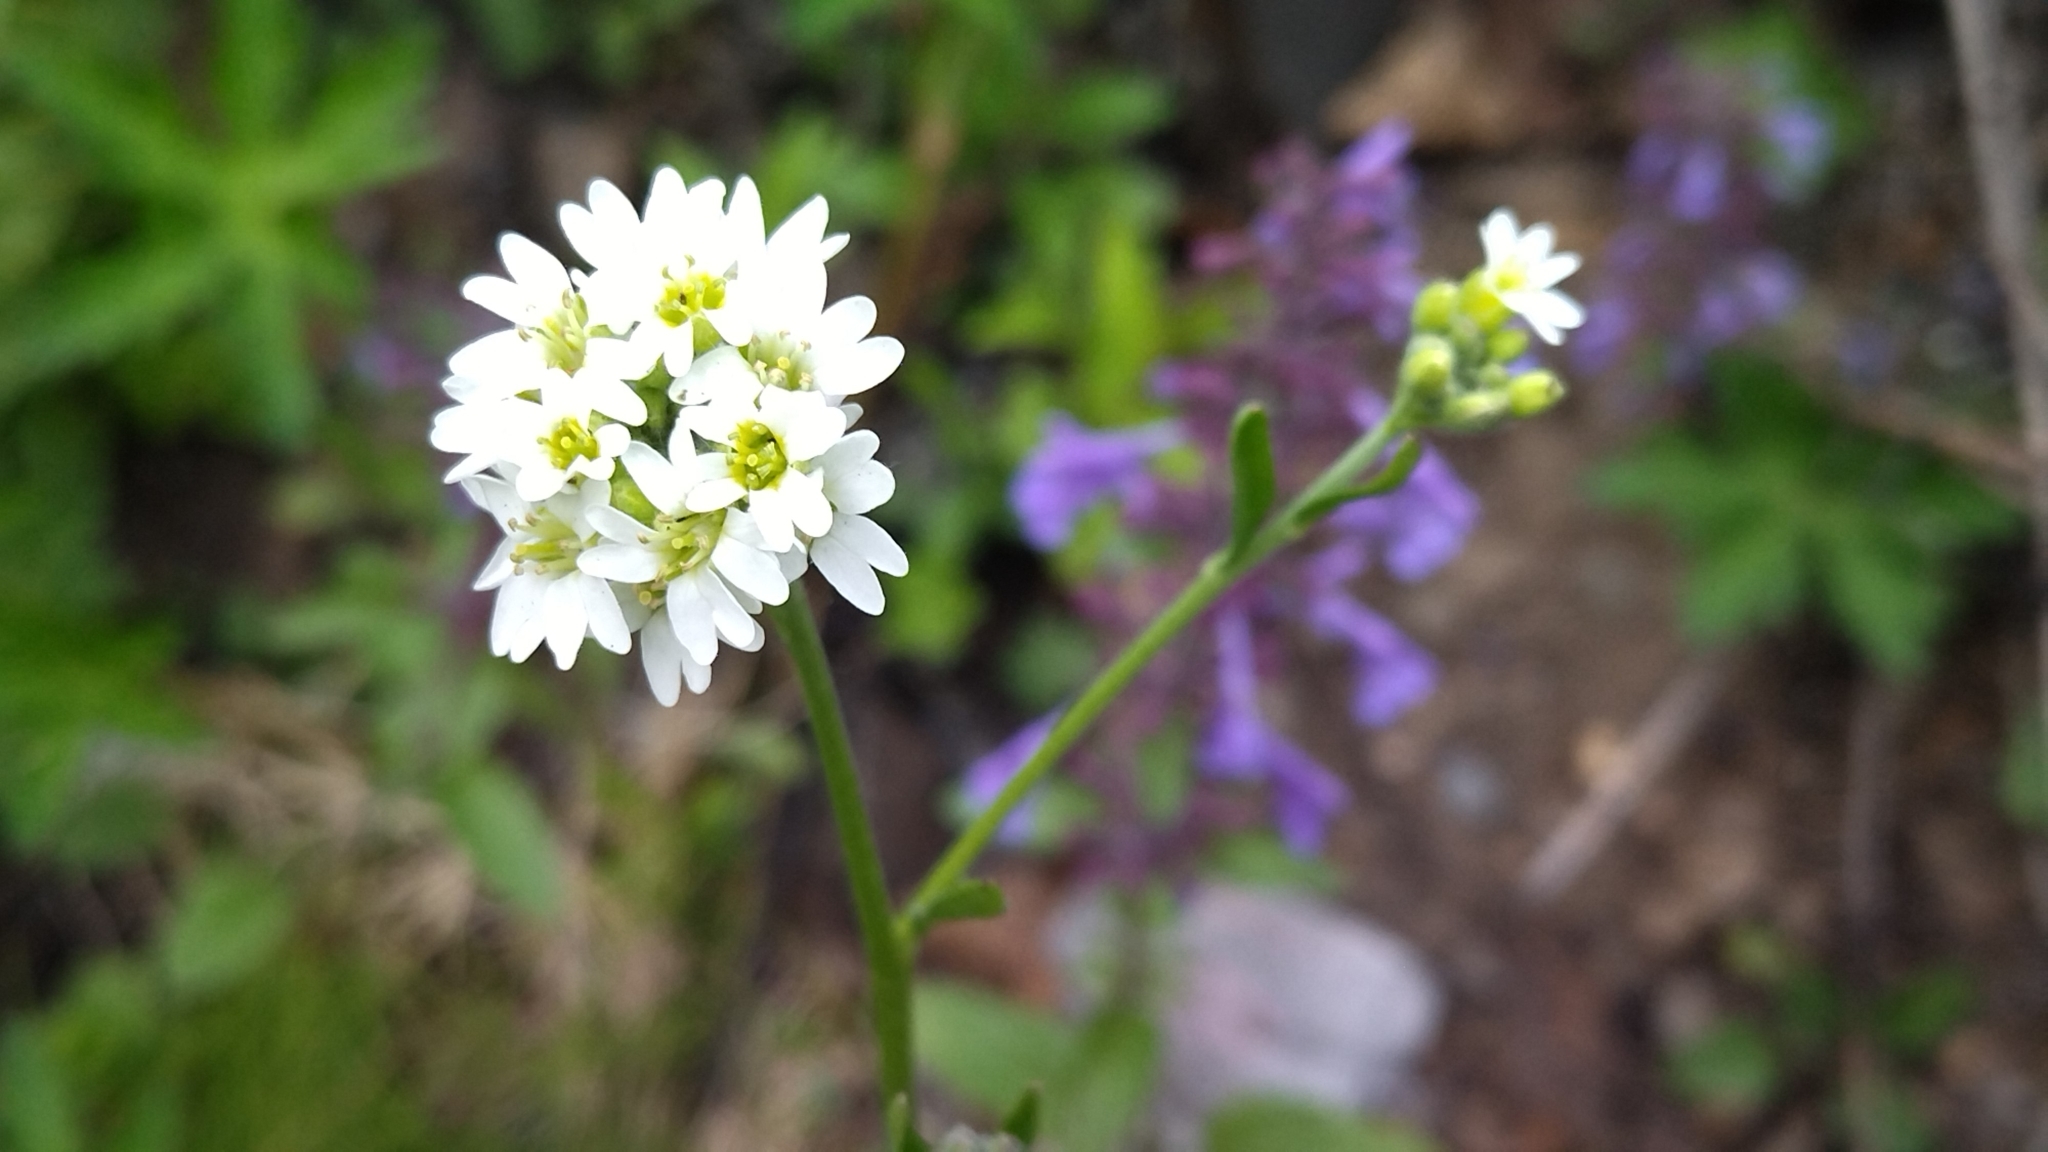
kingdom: Plantae
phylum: Tracheophyta
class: Magnoliopsida
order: Brassicales
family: Brassicaceae
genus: Berteroa
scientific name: Berteroa incana
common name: Hoary alison
